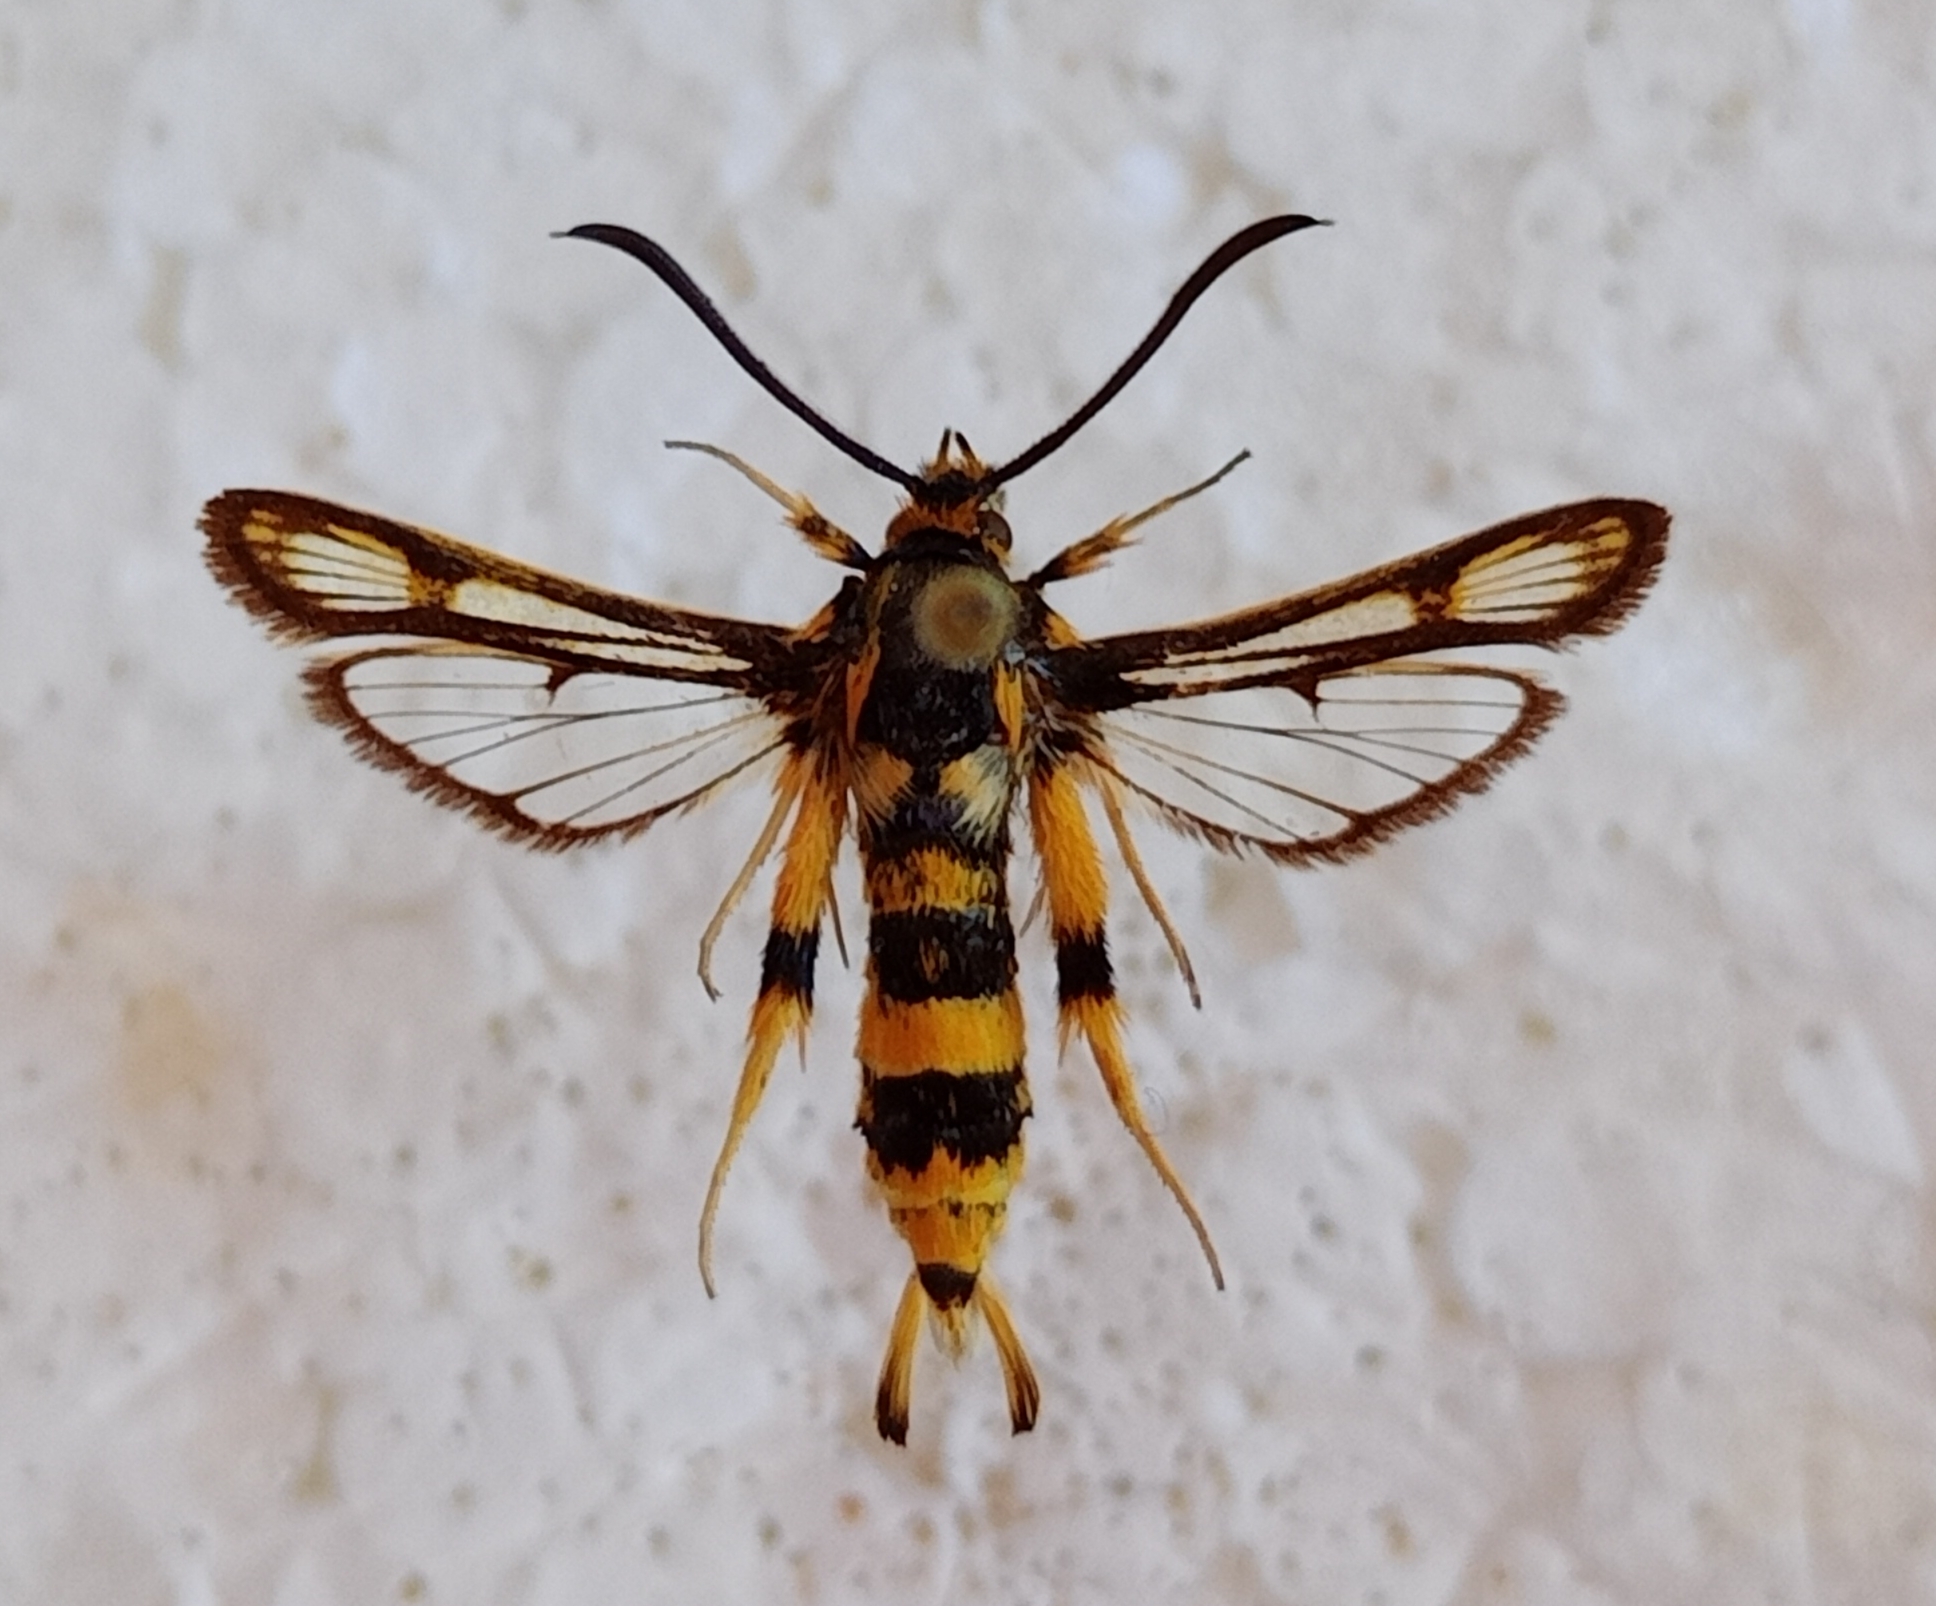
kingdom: Animalia
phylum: Arthropoda
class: Insecta
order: Lepidoptera
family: Sesiidae
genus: Chamaesphecia
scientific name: Chamaesphecia masariformis
